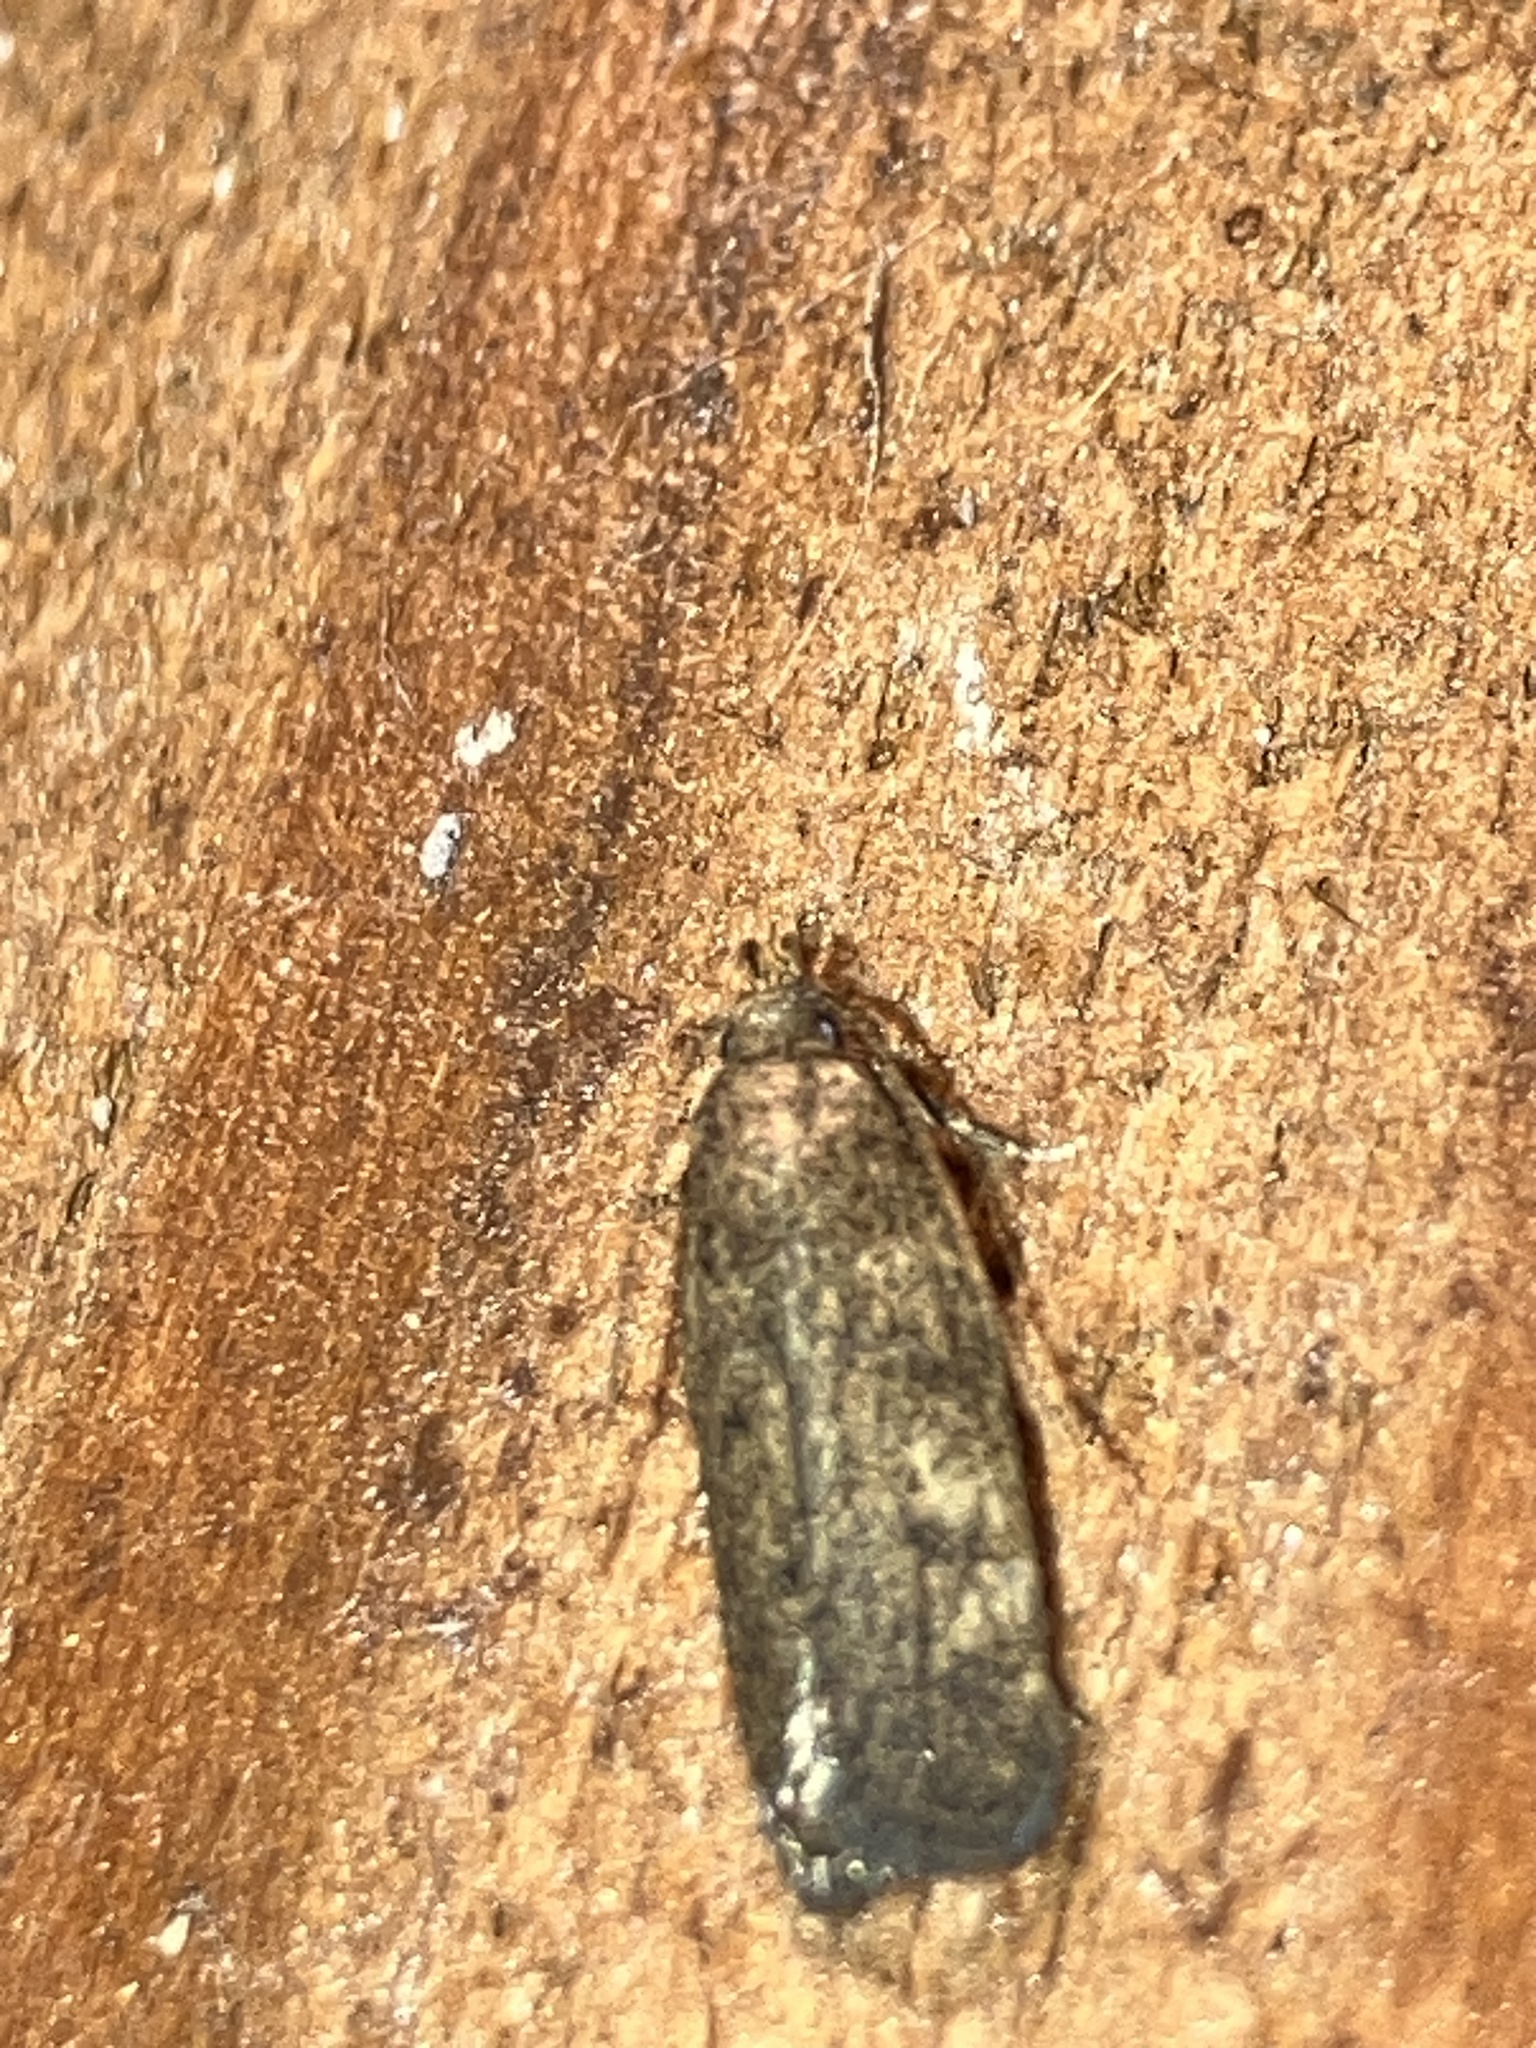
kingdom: Animalia
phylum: Arthropoda
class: Insecta
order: Lepidoptera
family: Autostichidae
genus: Glyphidocera
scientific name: Glyphidocera floridanella
